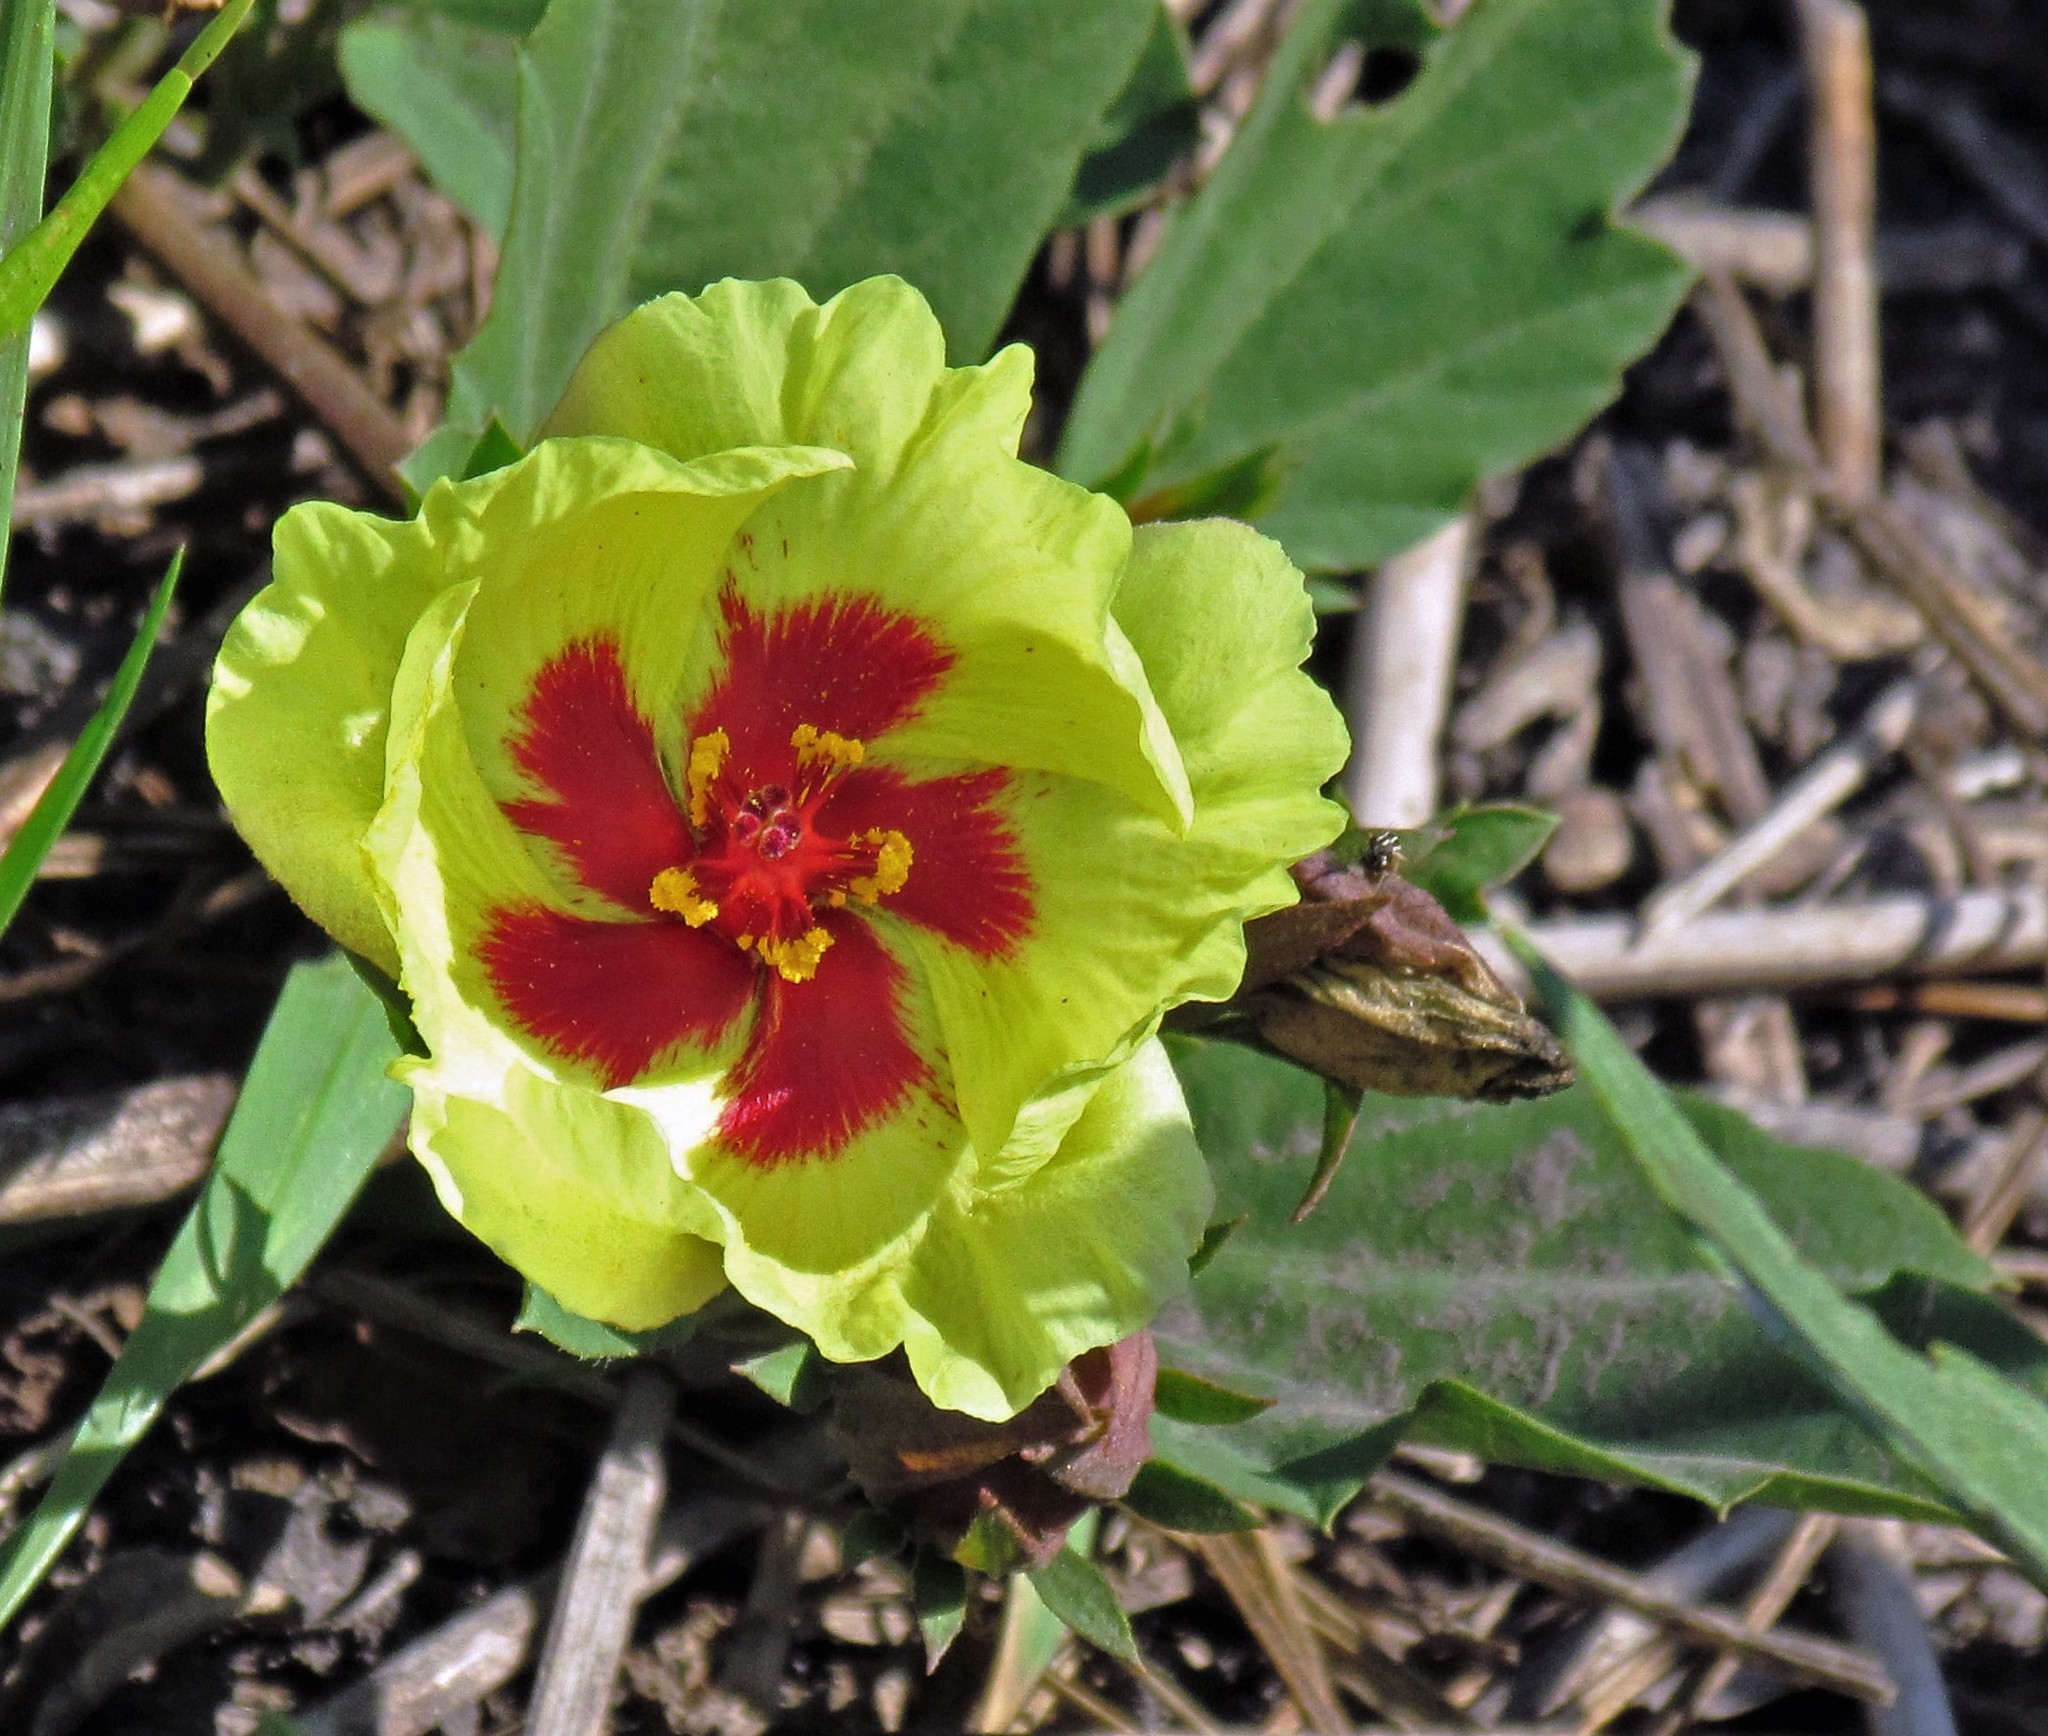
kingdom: Plantae
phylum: Tracheophyta
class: Magnoliopsida
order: Malvales
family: Malvaceae
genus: Cienfuegosia
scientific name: Cienfuegosia drummondii
